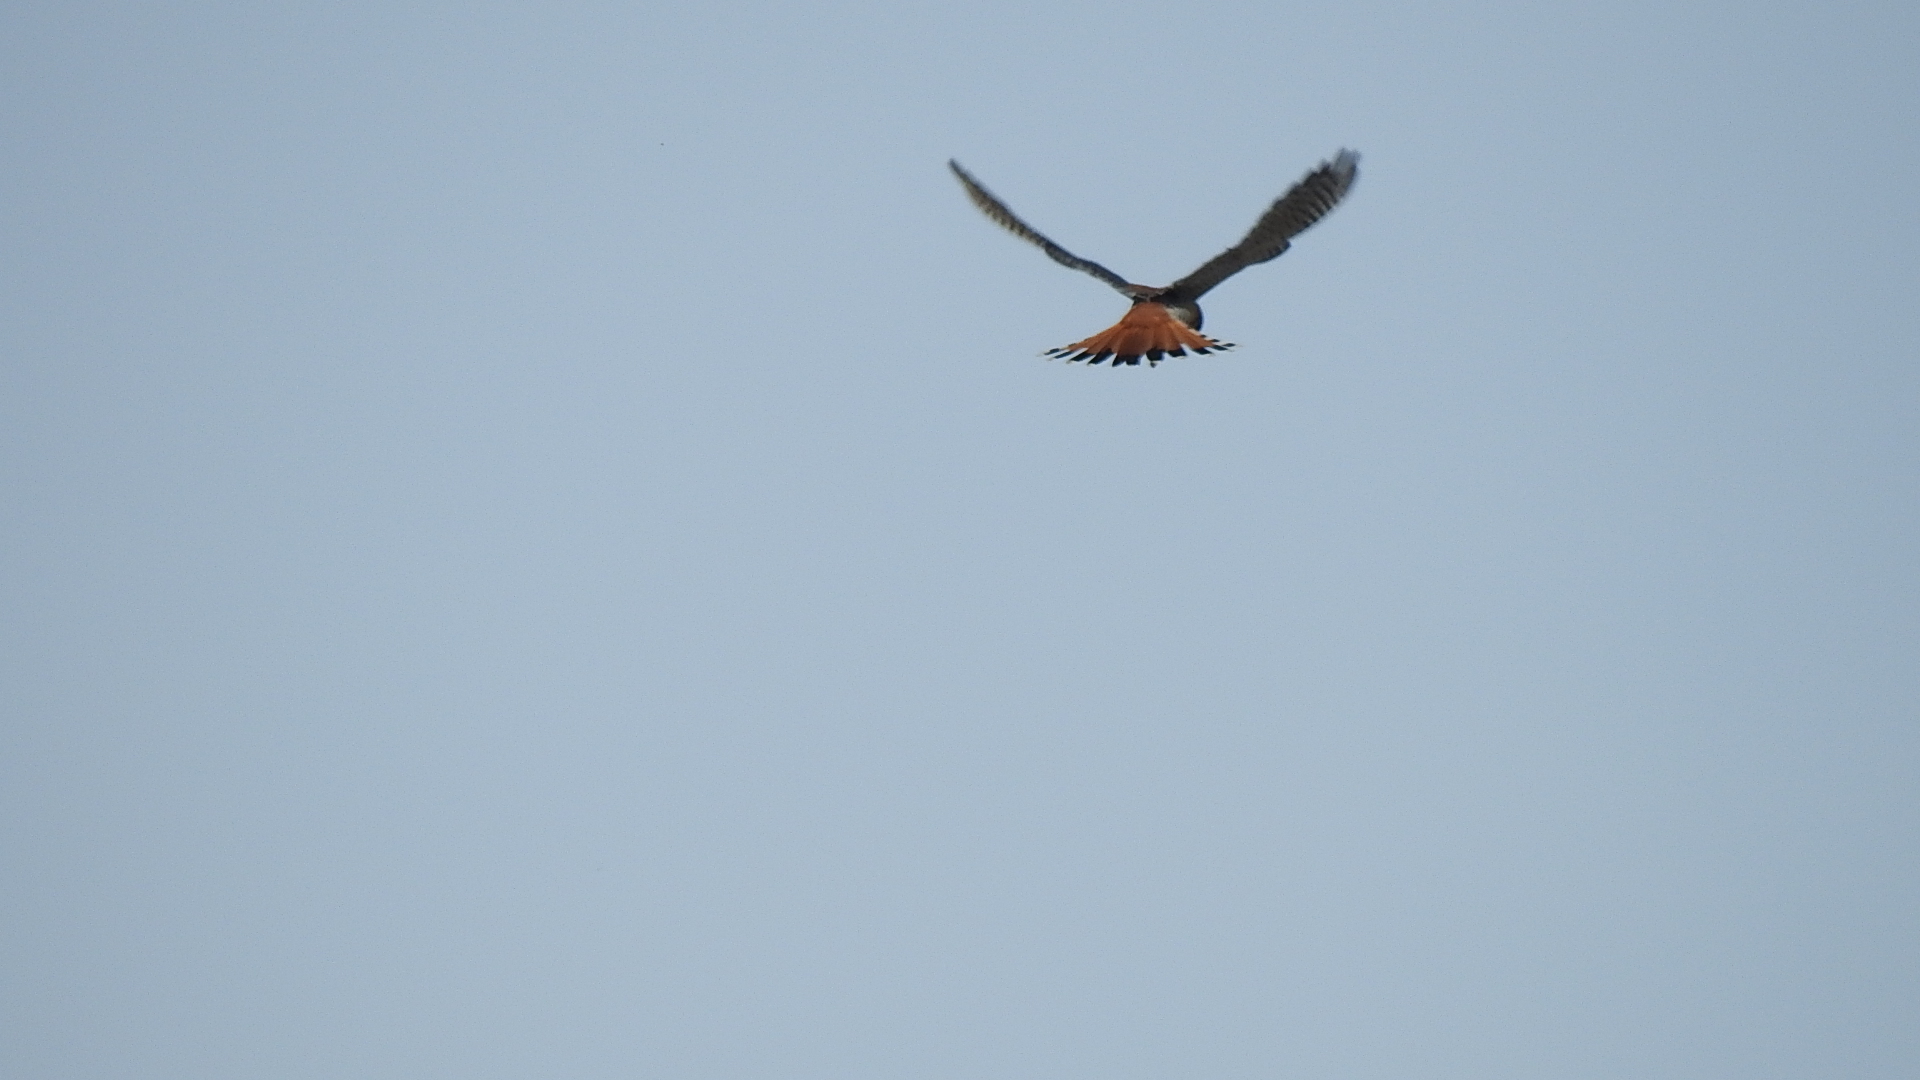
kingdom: Animalia
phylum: Chordata
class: Aves
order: Falconiformes
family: Falconidae
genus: Falco
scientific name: Falco sparverius
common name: American kestrel
